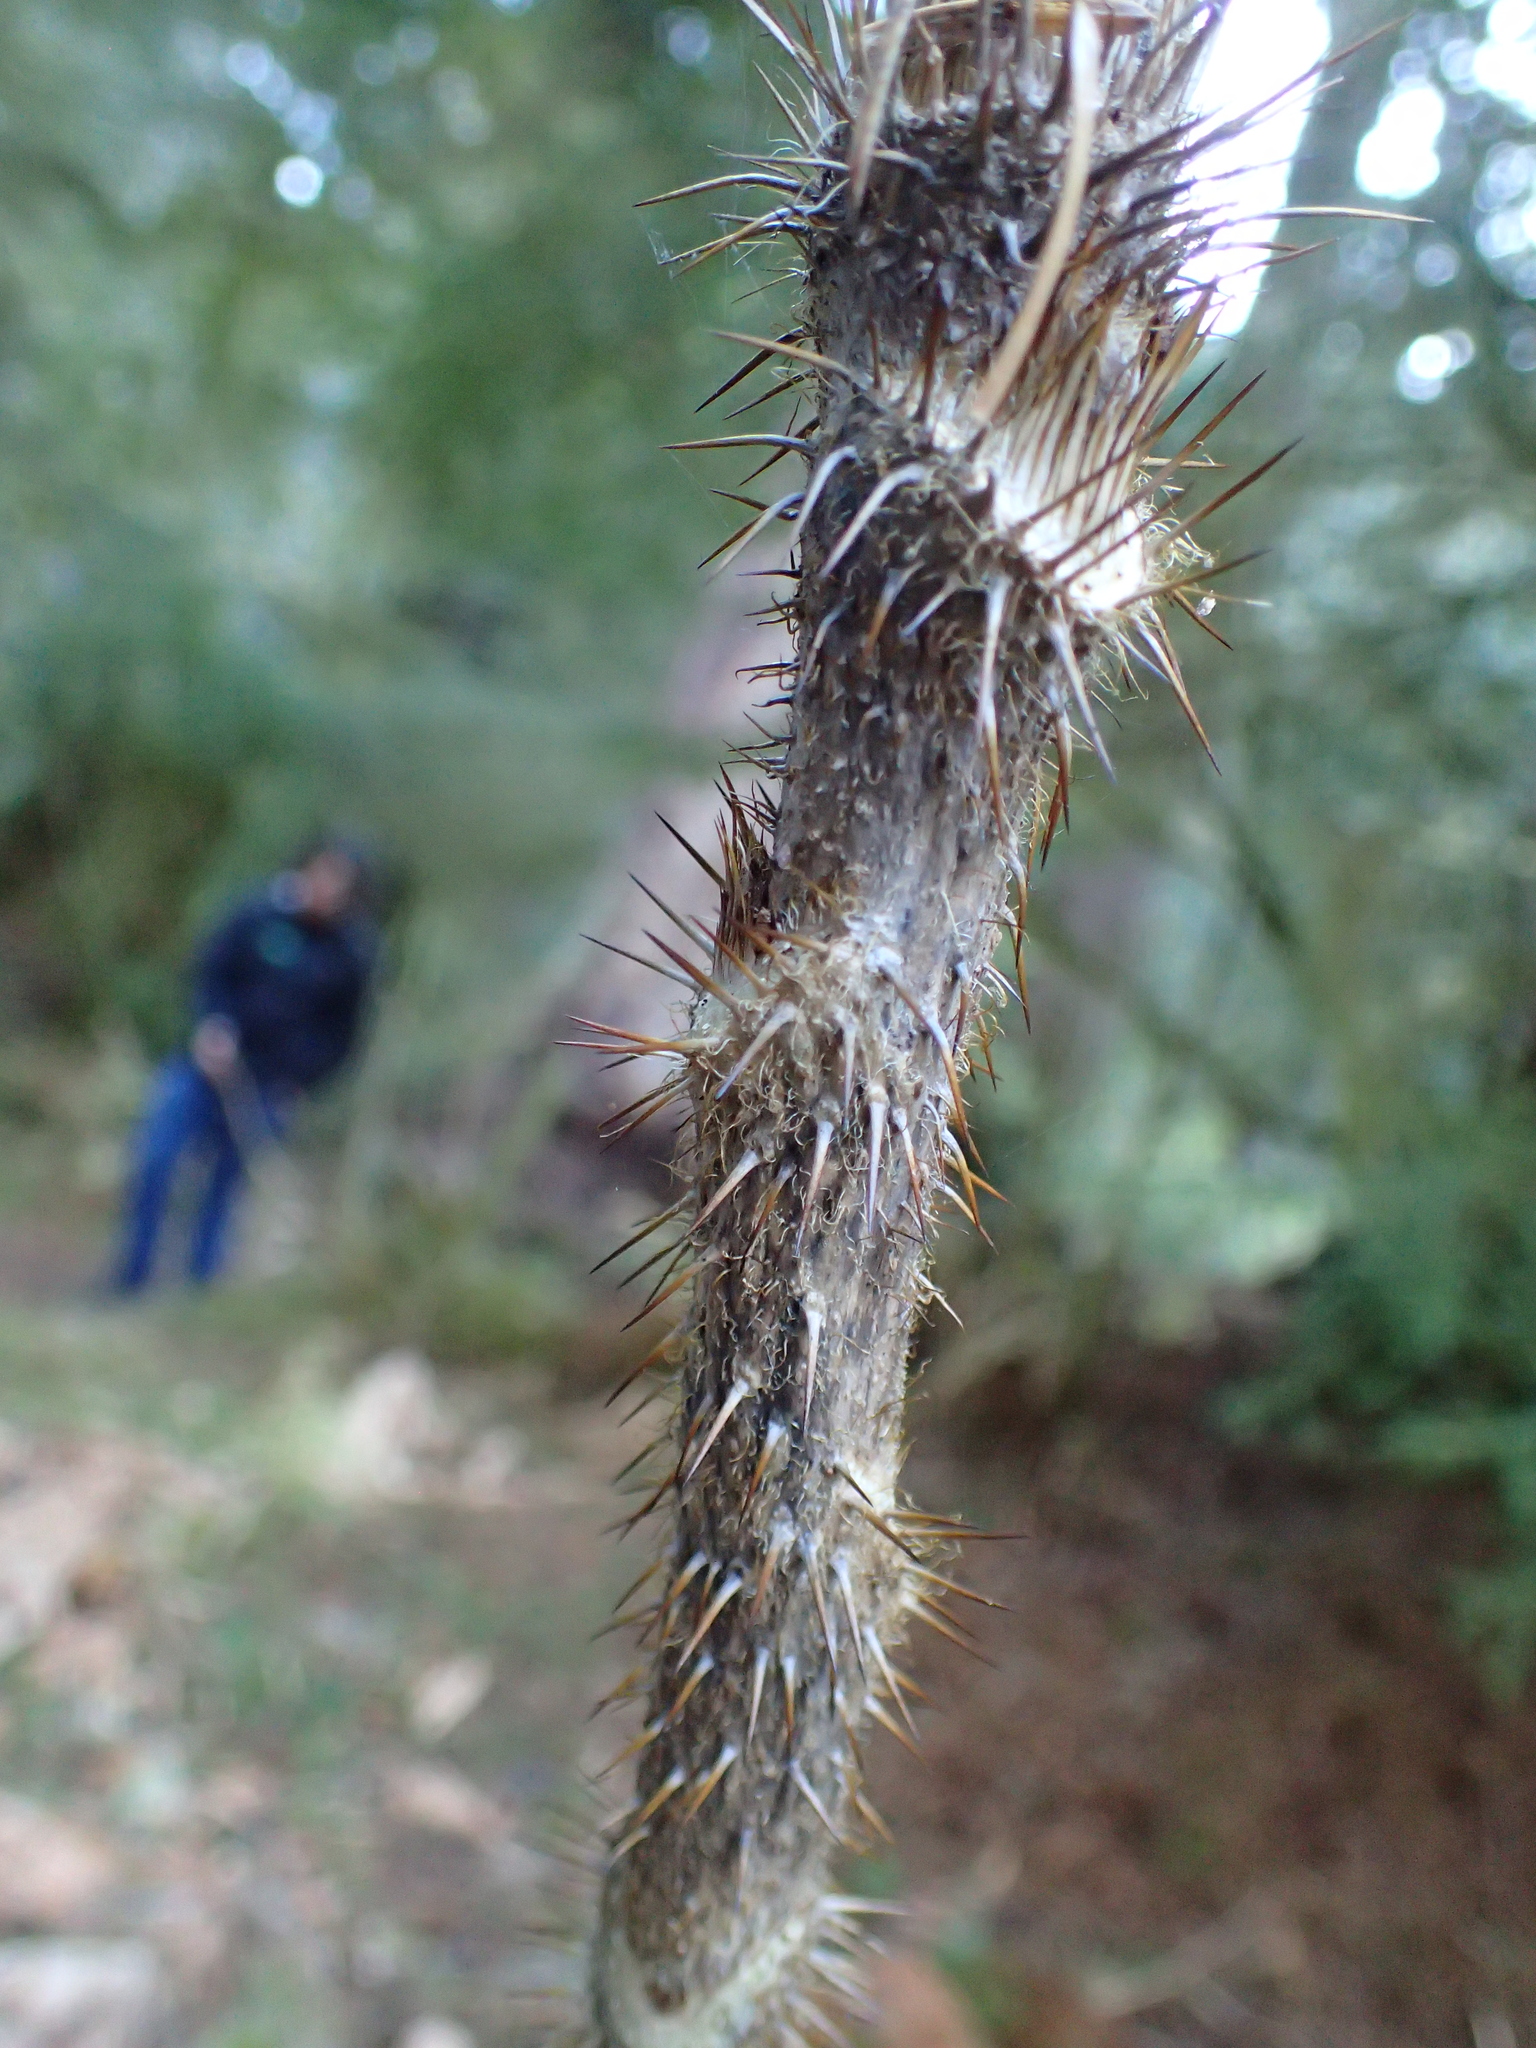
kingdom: Plantae
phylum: Tracheophyta
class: Magnoliopsida
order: Apiales
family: Araliaceae
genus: Oplopanax
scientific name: Oplopanax horridus
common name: Devil's walking-stick
